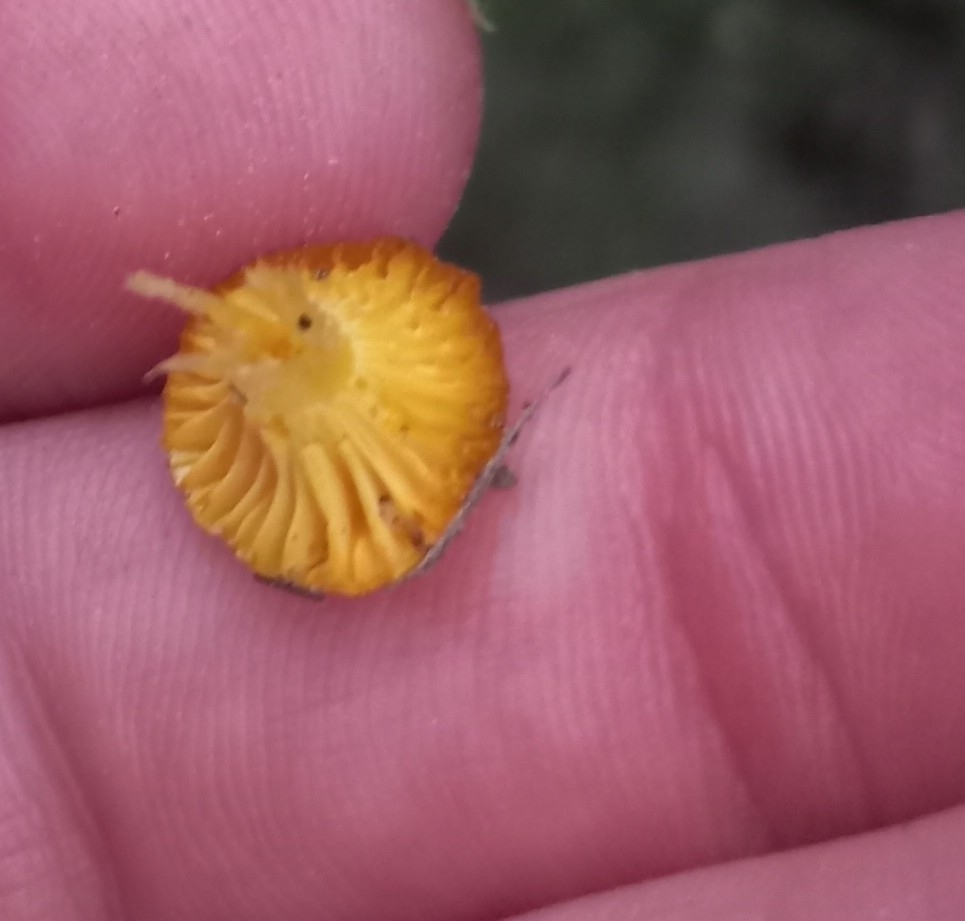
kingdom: Fungi
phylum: Basidiomycota
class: Agaricomycetes
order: Agaricales
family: Hygrophoraceae
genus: Gloioxanthomyces
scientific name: Gloioxanthomyces
